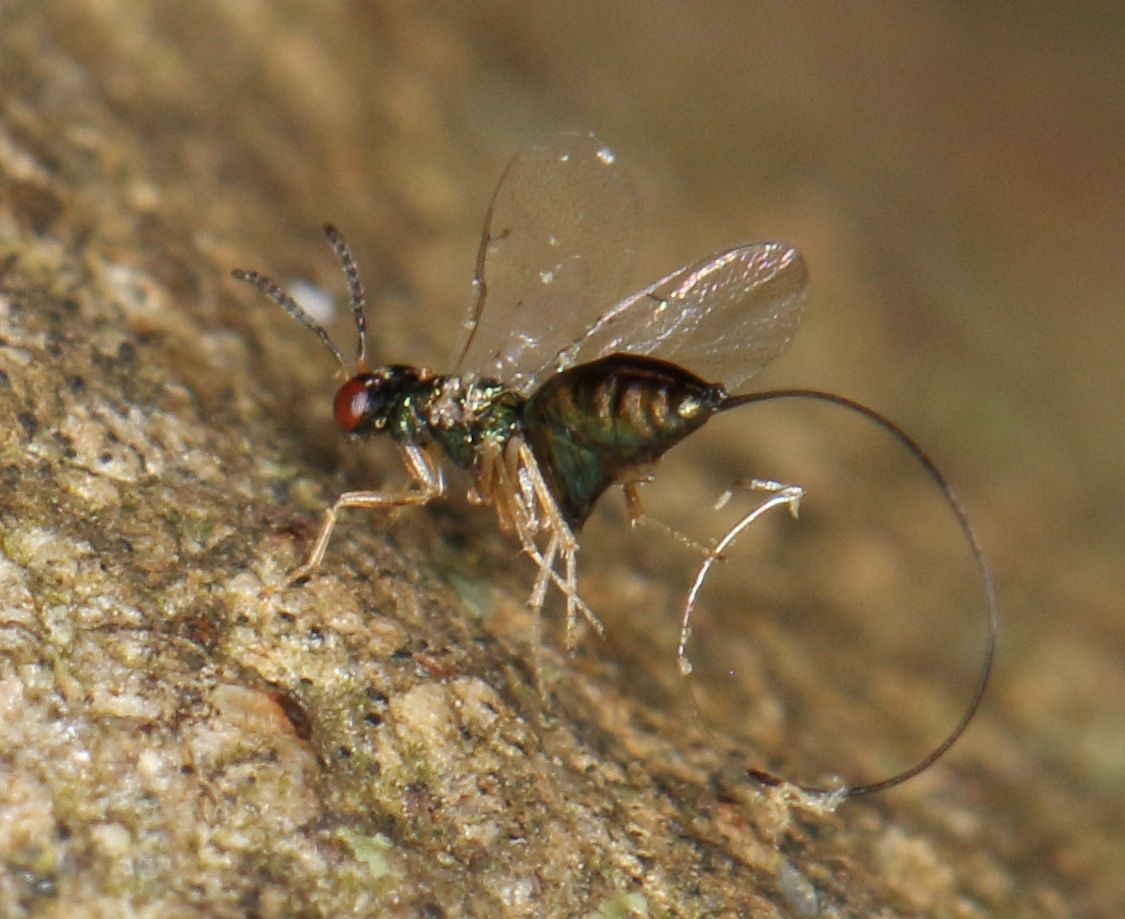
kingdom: Animalia
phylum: Arthropoda
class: Insecta
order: Hymenoptera
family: Agaonidae
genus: Apocrypta
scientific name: Apocrypta guineensis
